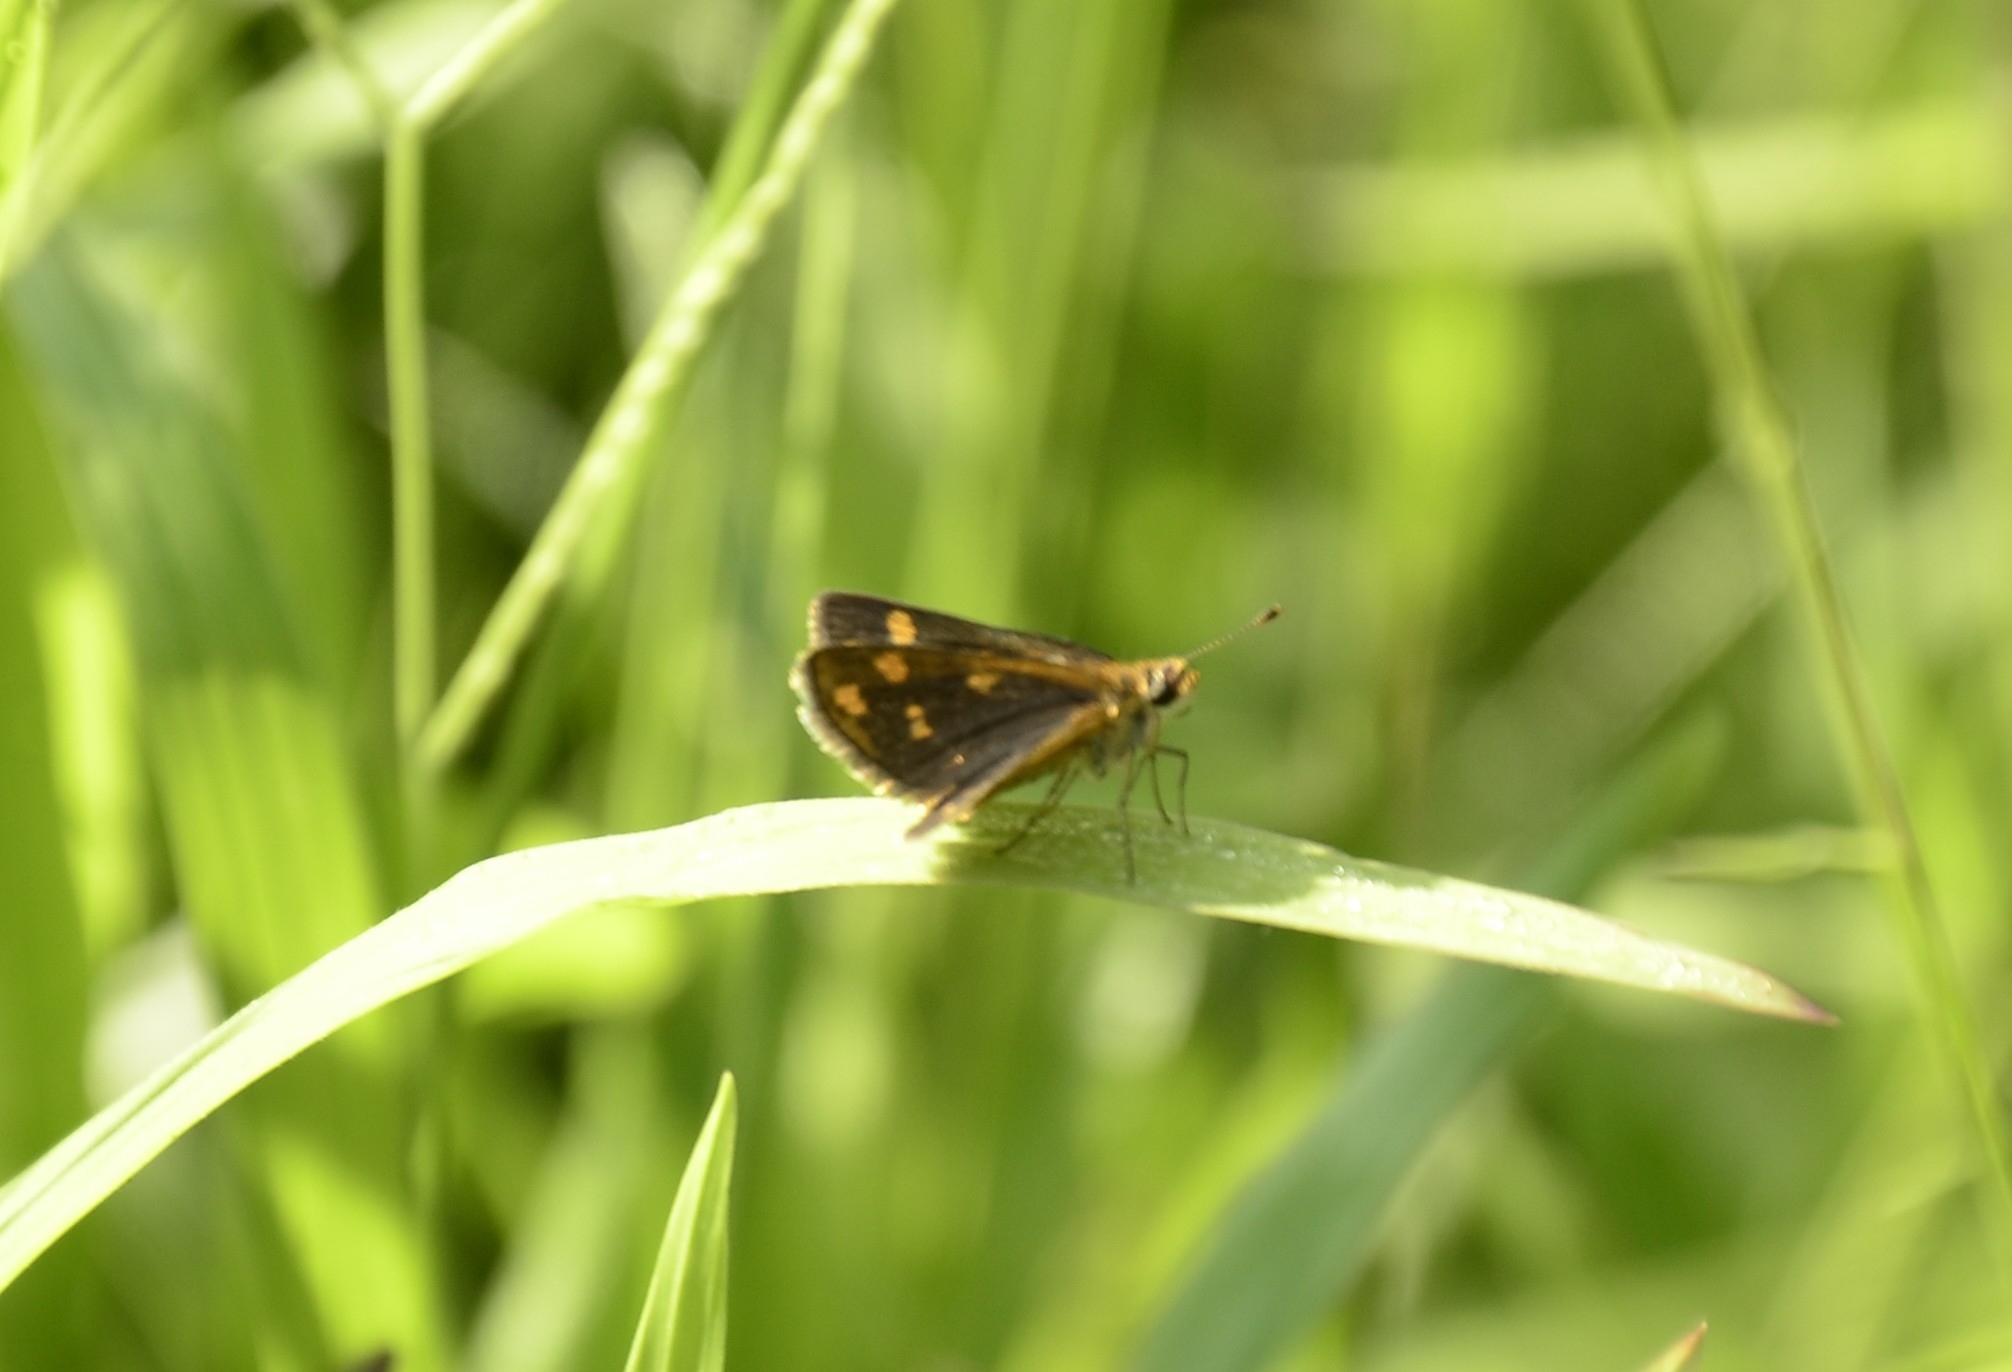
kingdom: Animalia
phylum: Arthropoda
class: Insecta
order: Lepidoptera
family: Hesperiidae
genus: Taractrocera
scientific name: Taractrocera ceramas
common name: Tamil grass dart
